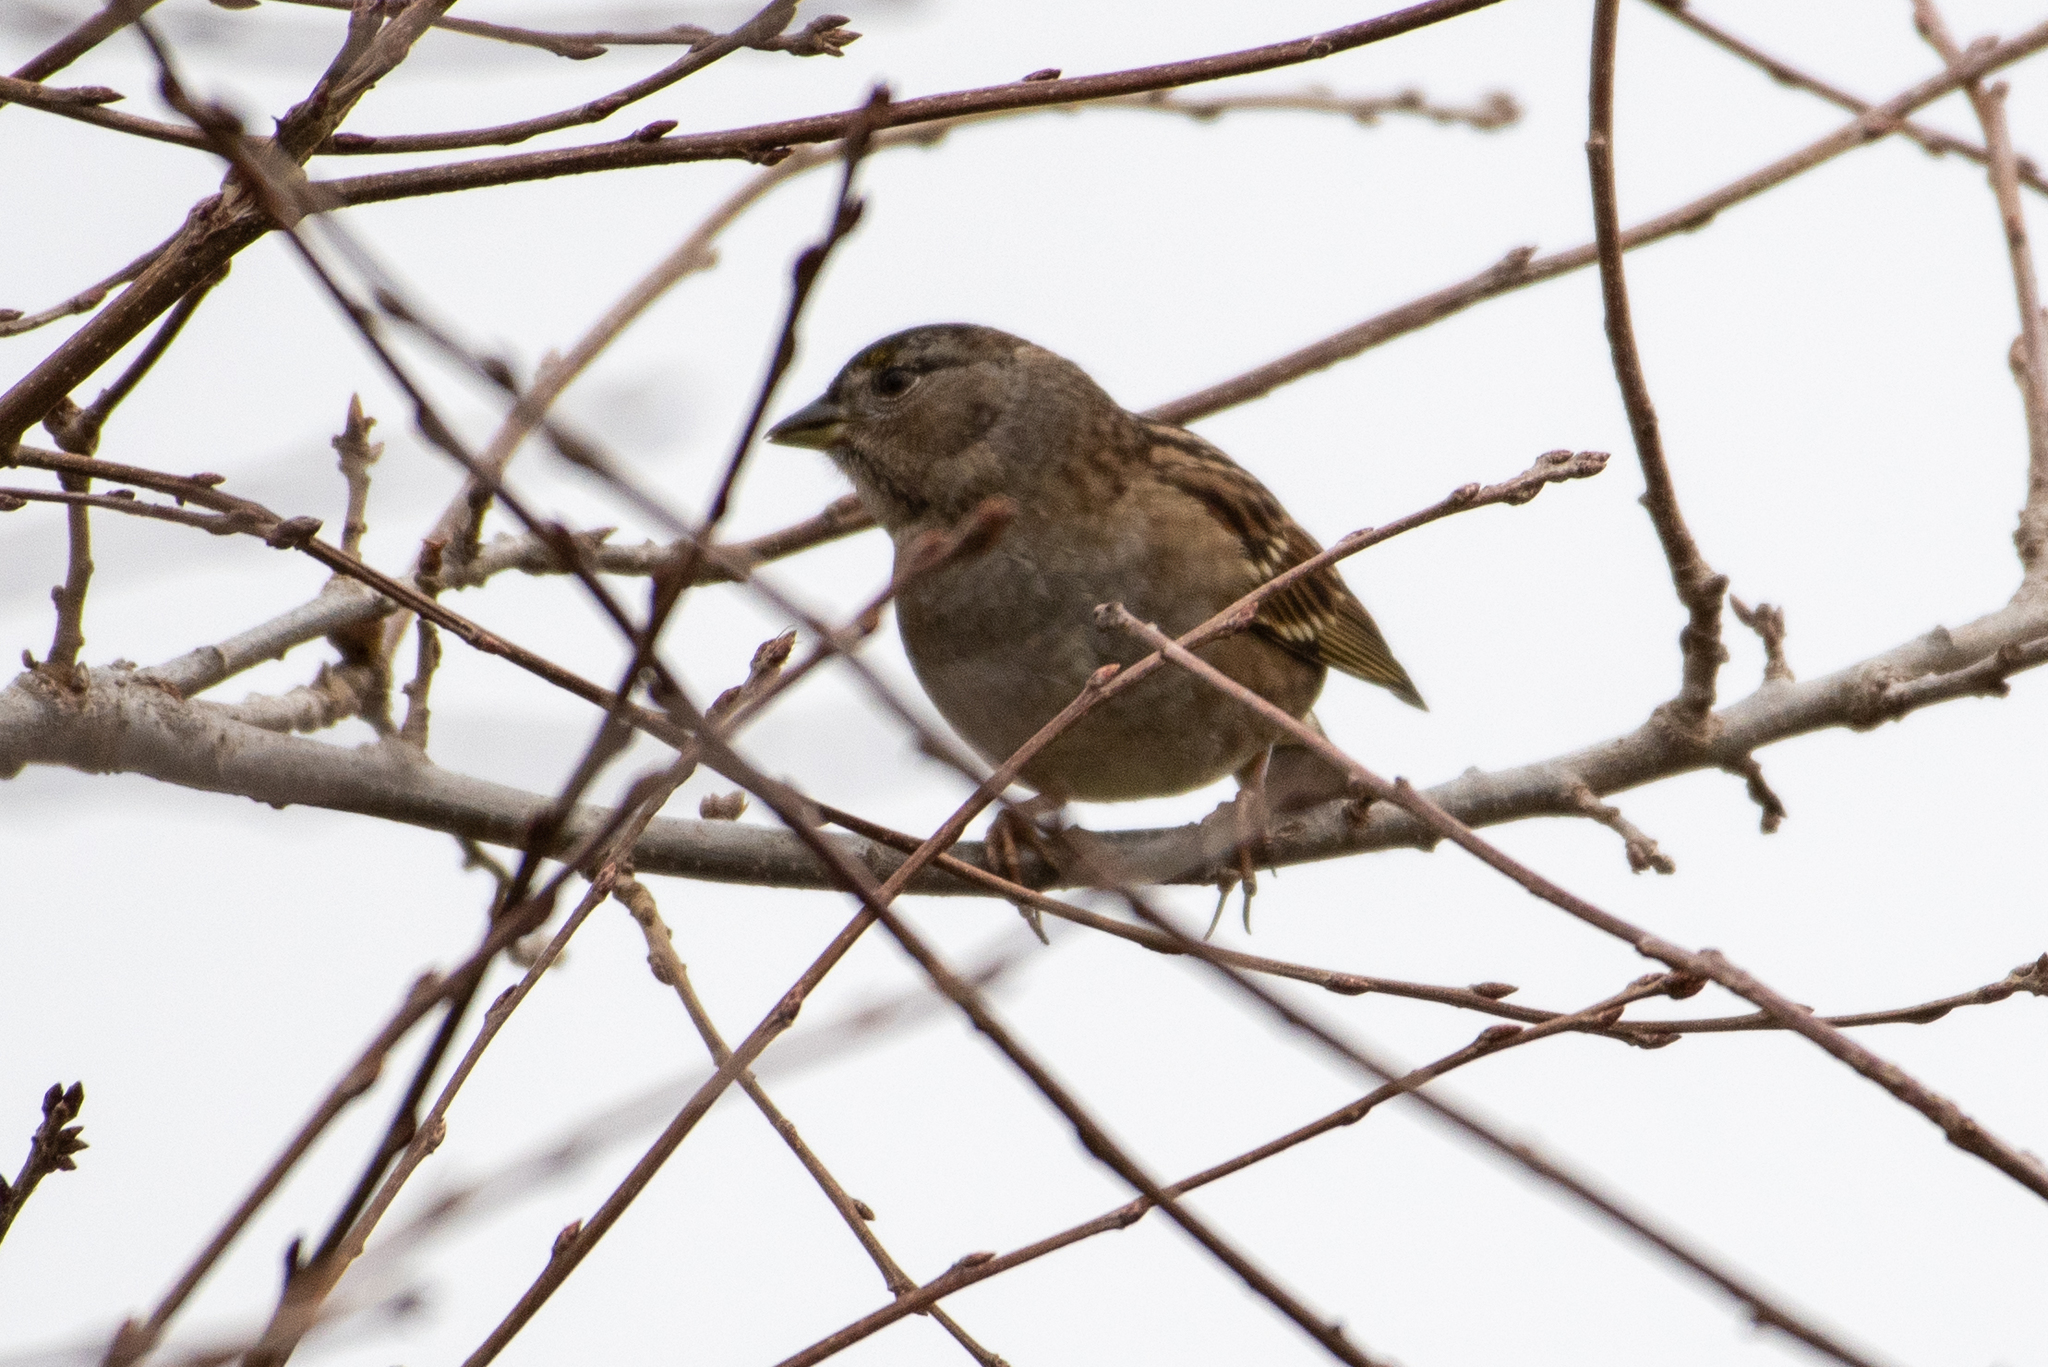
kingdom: Animalia
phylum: Chordata
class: Aves
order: Passeriformes
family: Passerellidae
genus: Zonotrichia
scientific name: Zonotrichia atricapilla
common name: Golden-crowned sparrow
